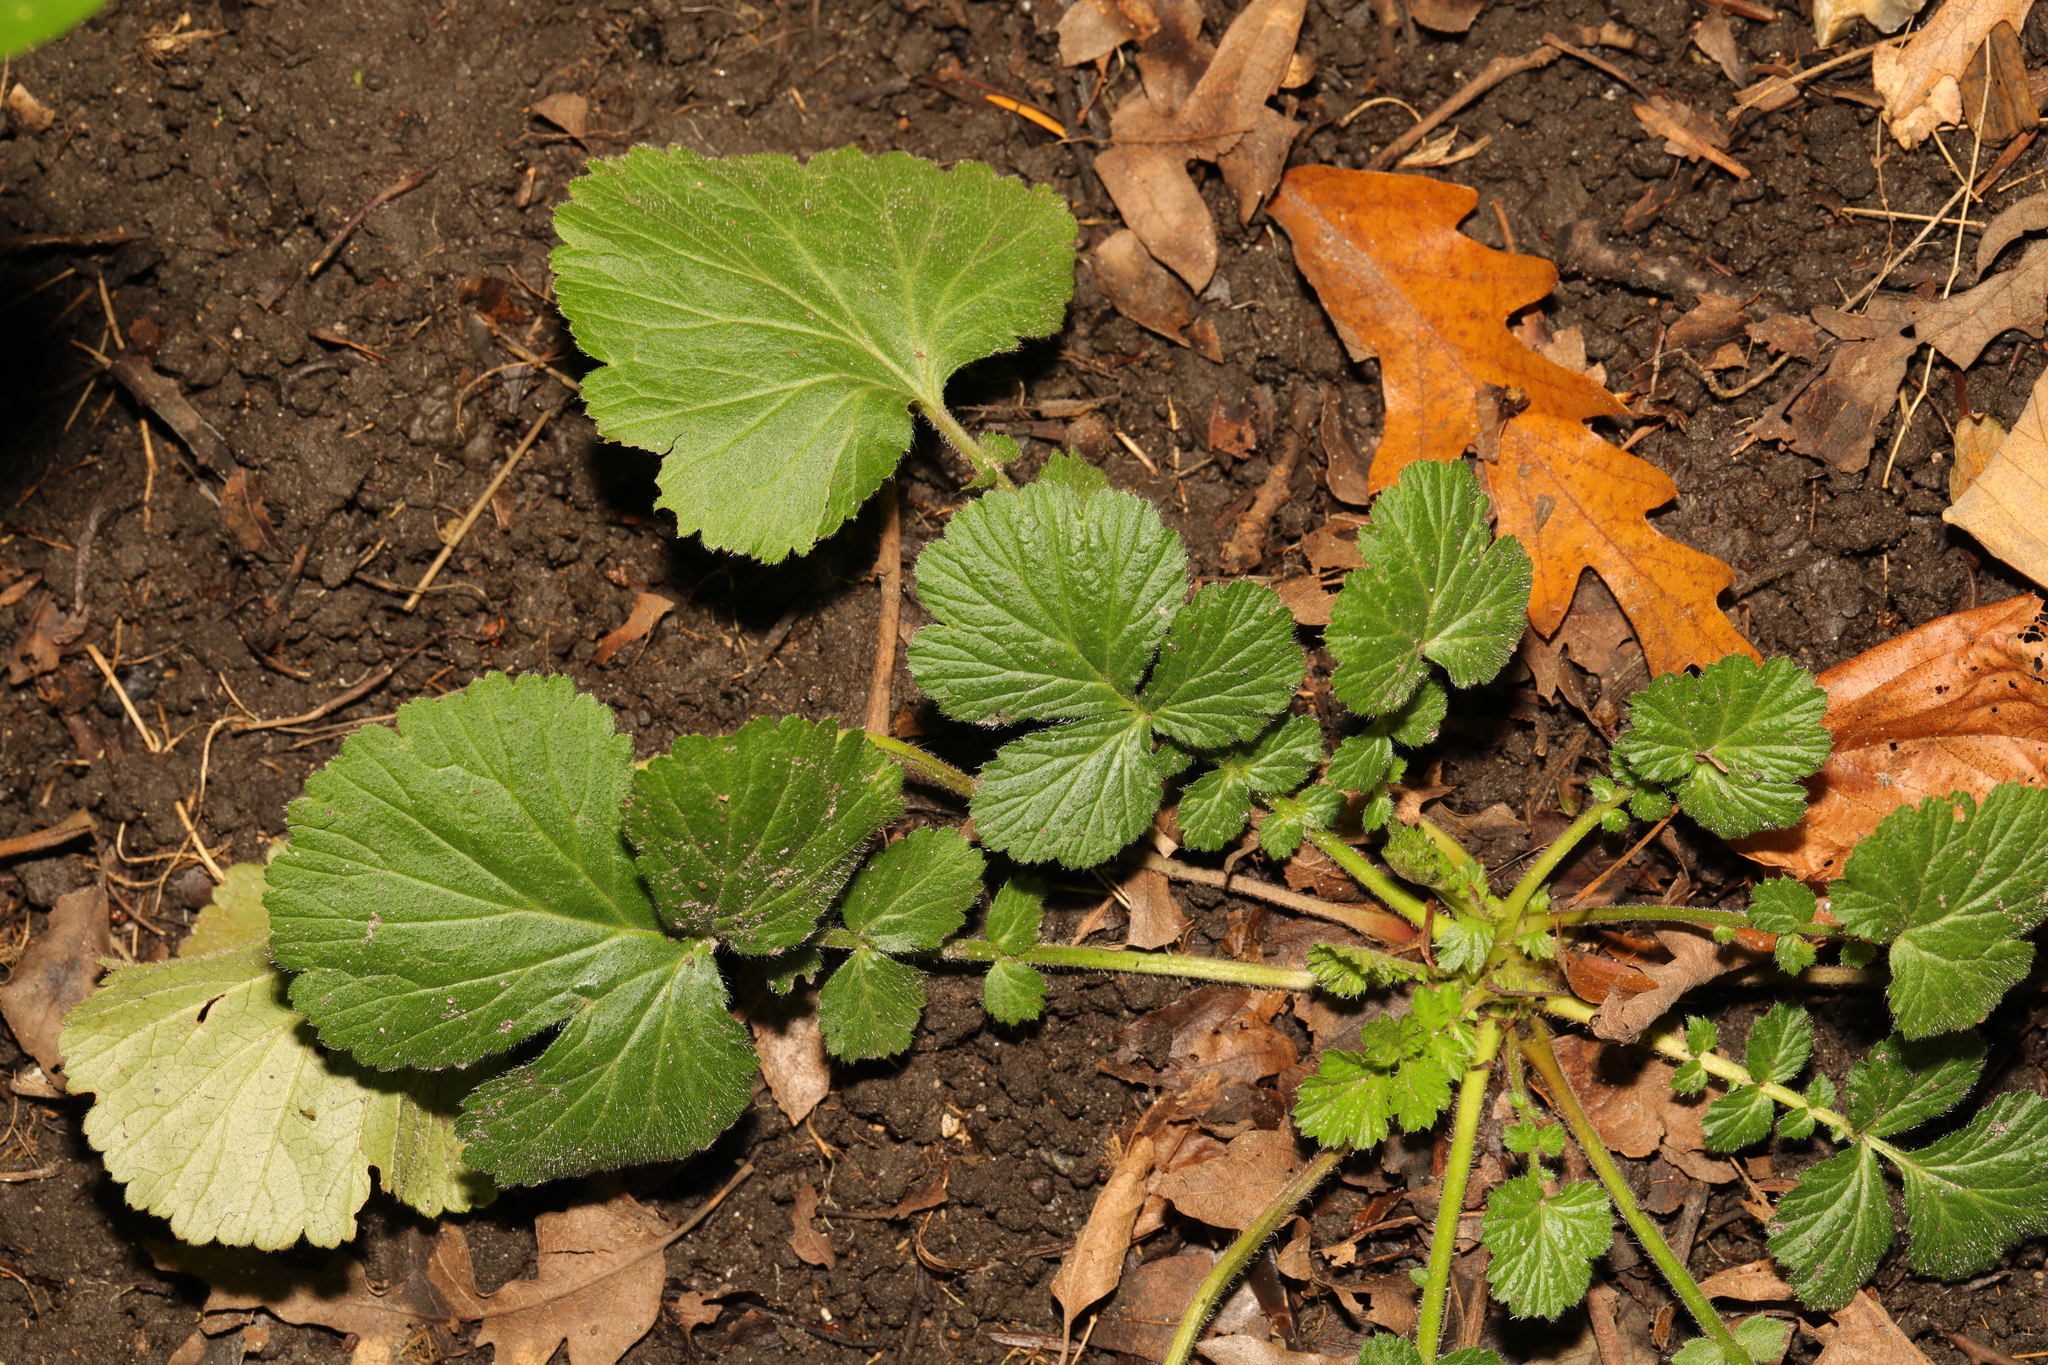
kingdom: Plantae
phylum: Tracheophyta
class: Magnoliopsida
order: Rosales
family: Rosaceae
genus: Geum
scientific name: Geum urbanum
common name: Wood avens
